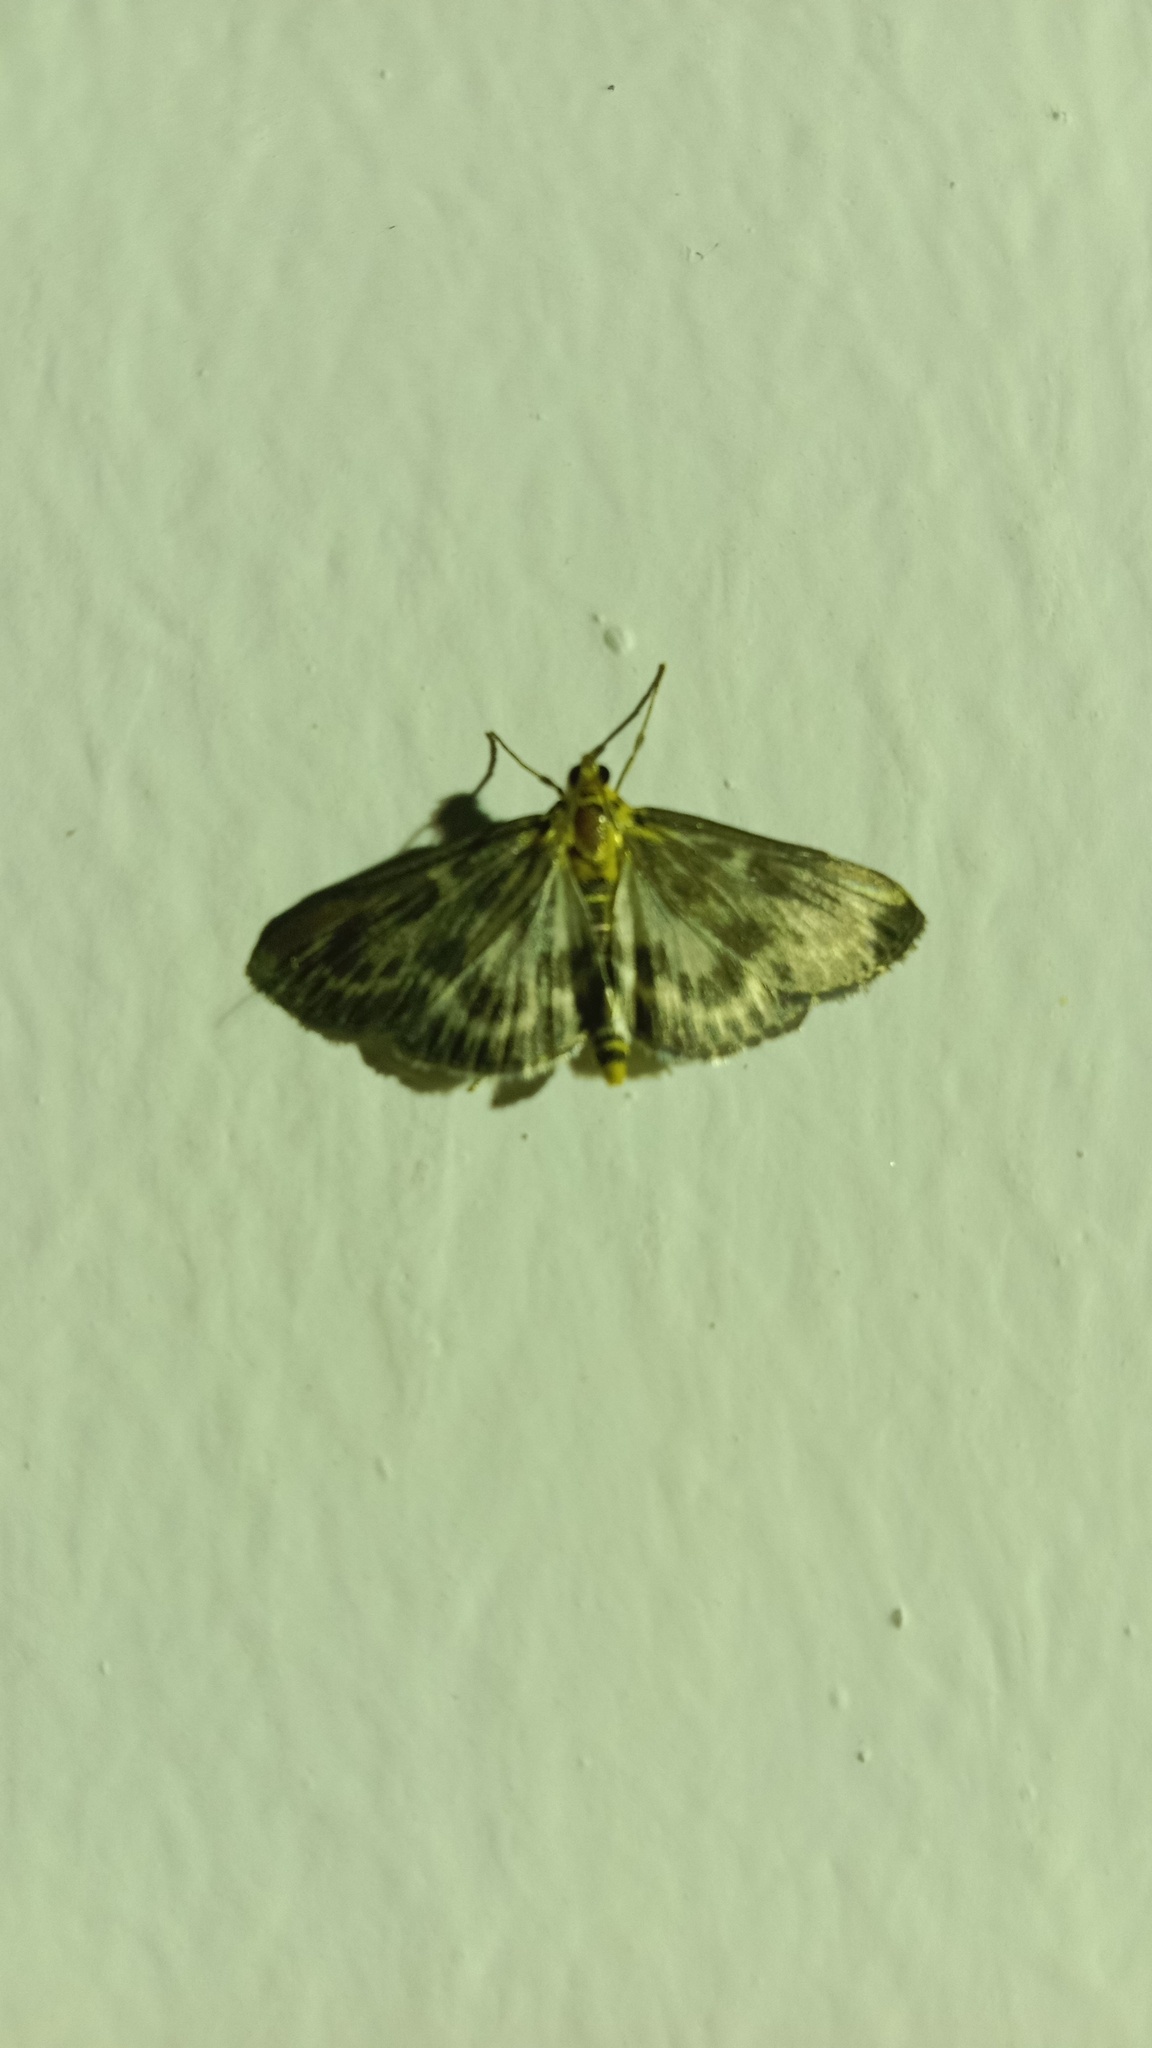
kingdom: Animalia
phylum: Arthropoda
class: Insecta
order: Lepidoptera
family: Crambidae
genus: Anania
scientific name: Anania hortulata
